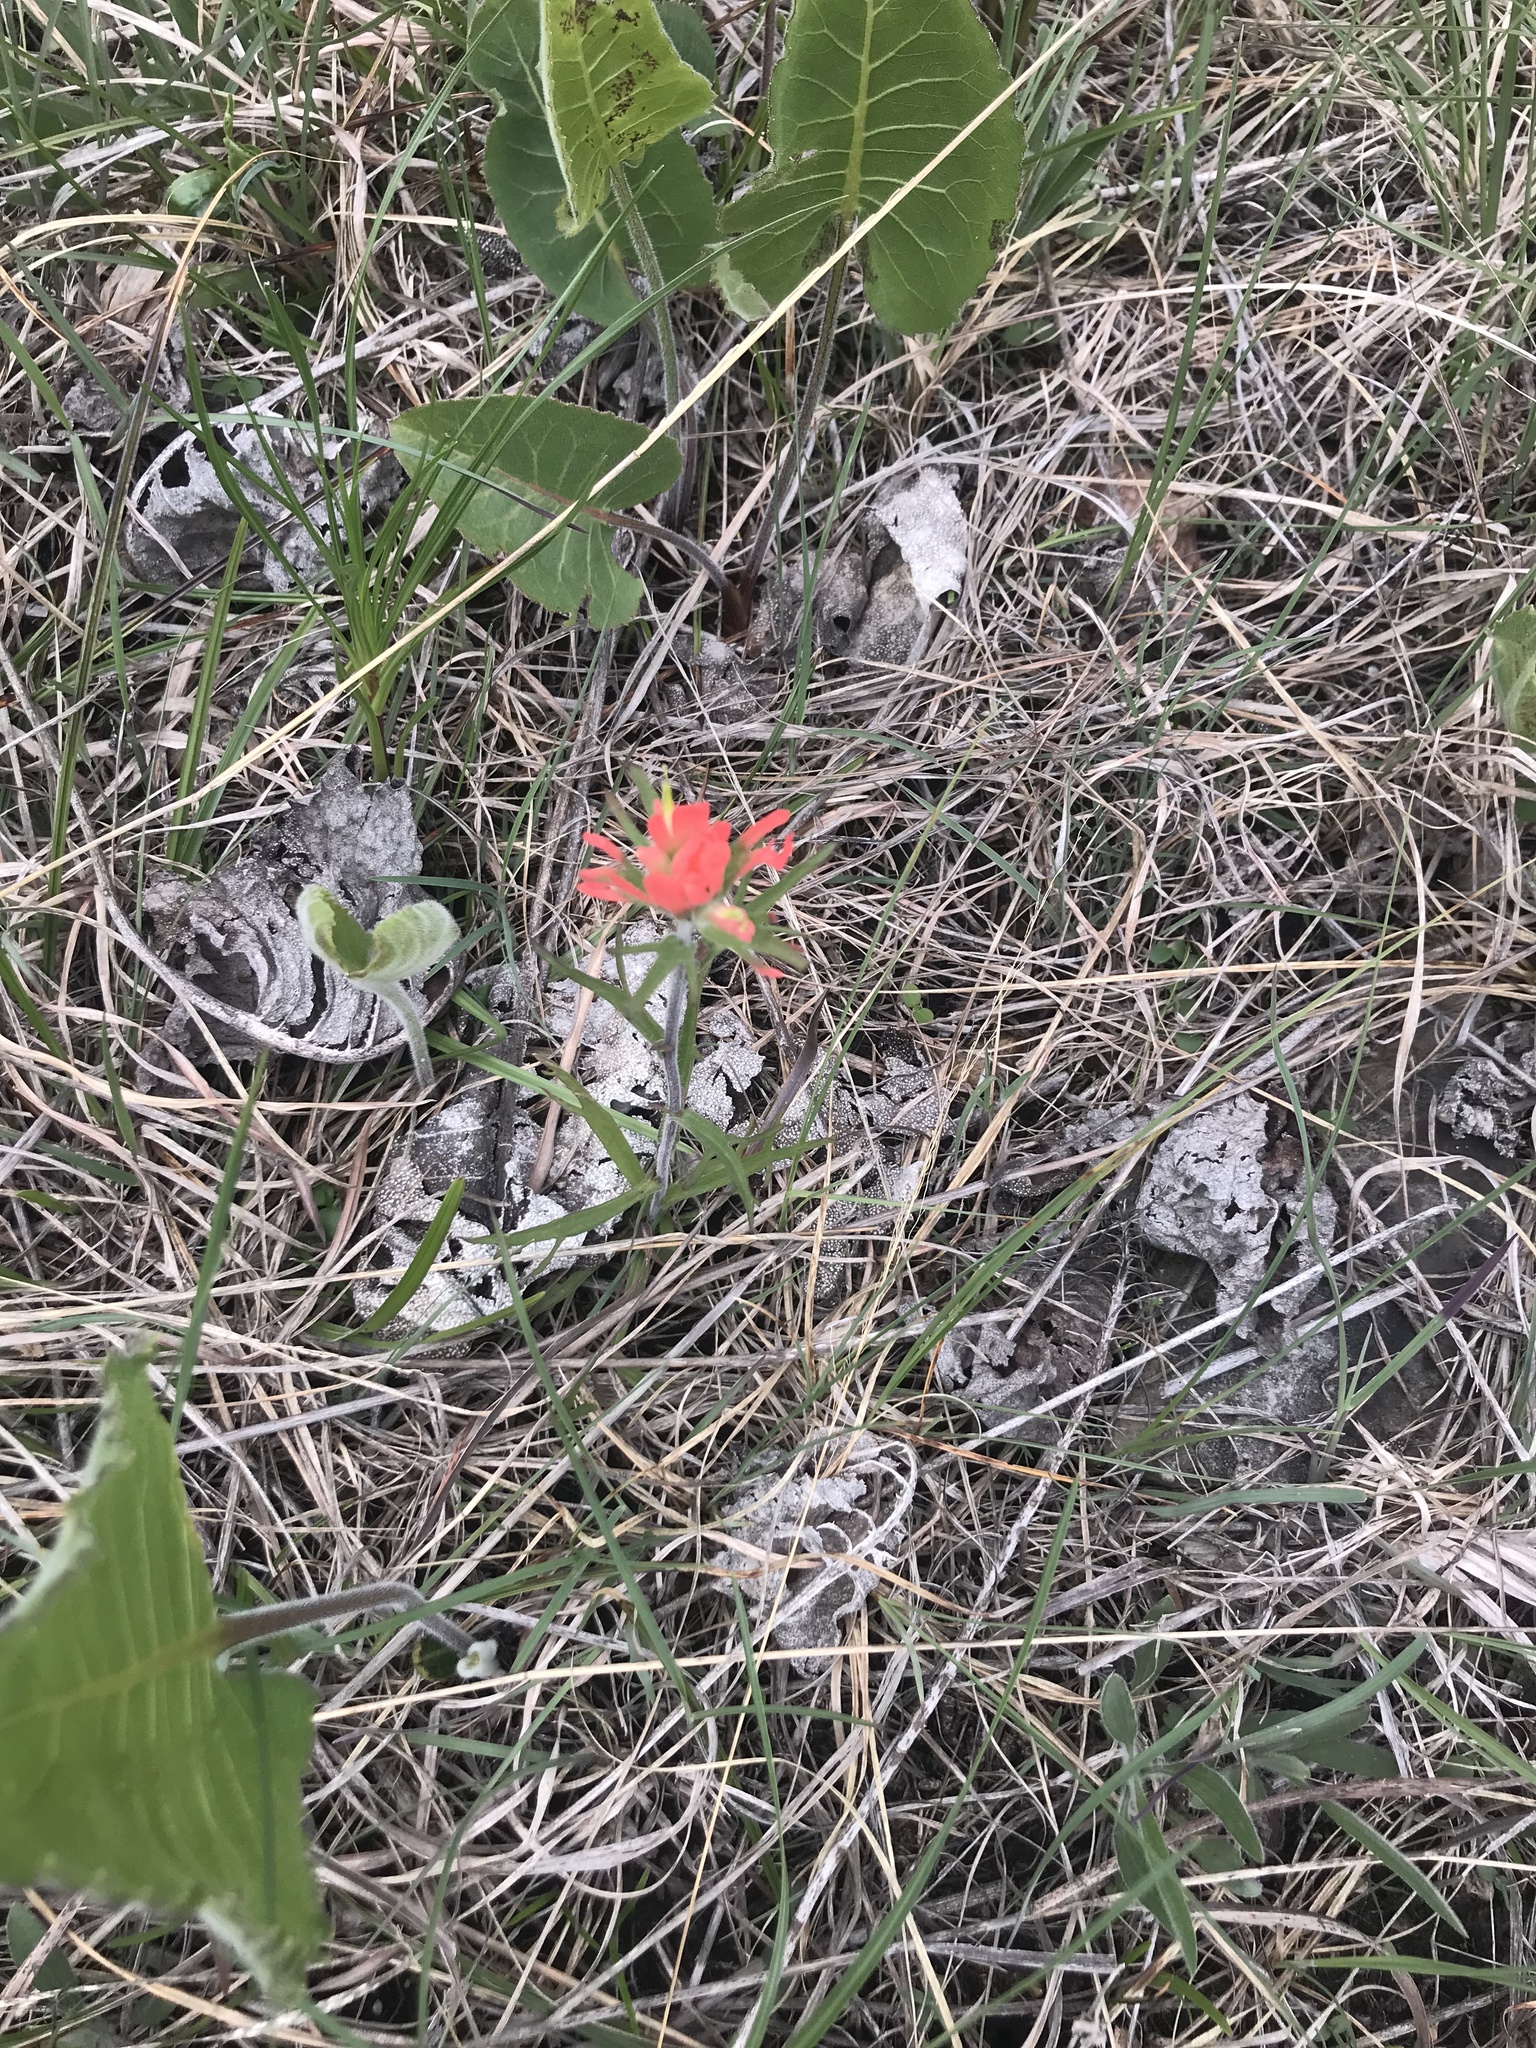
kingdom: Plantae
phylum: Tracheophyta
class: Magnoliopsida
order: Lamiales
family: Orobanchaceae
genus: Castilleja
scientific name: Castilleja coccinea
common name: Scarlet paintbrush
